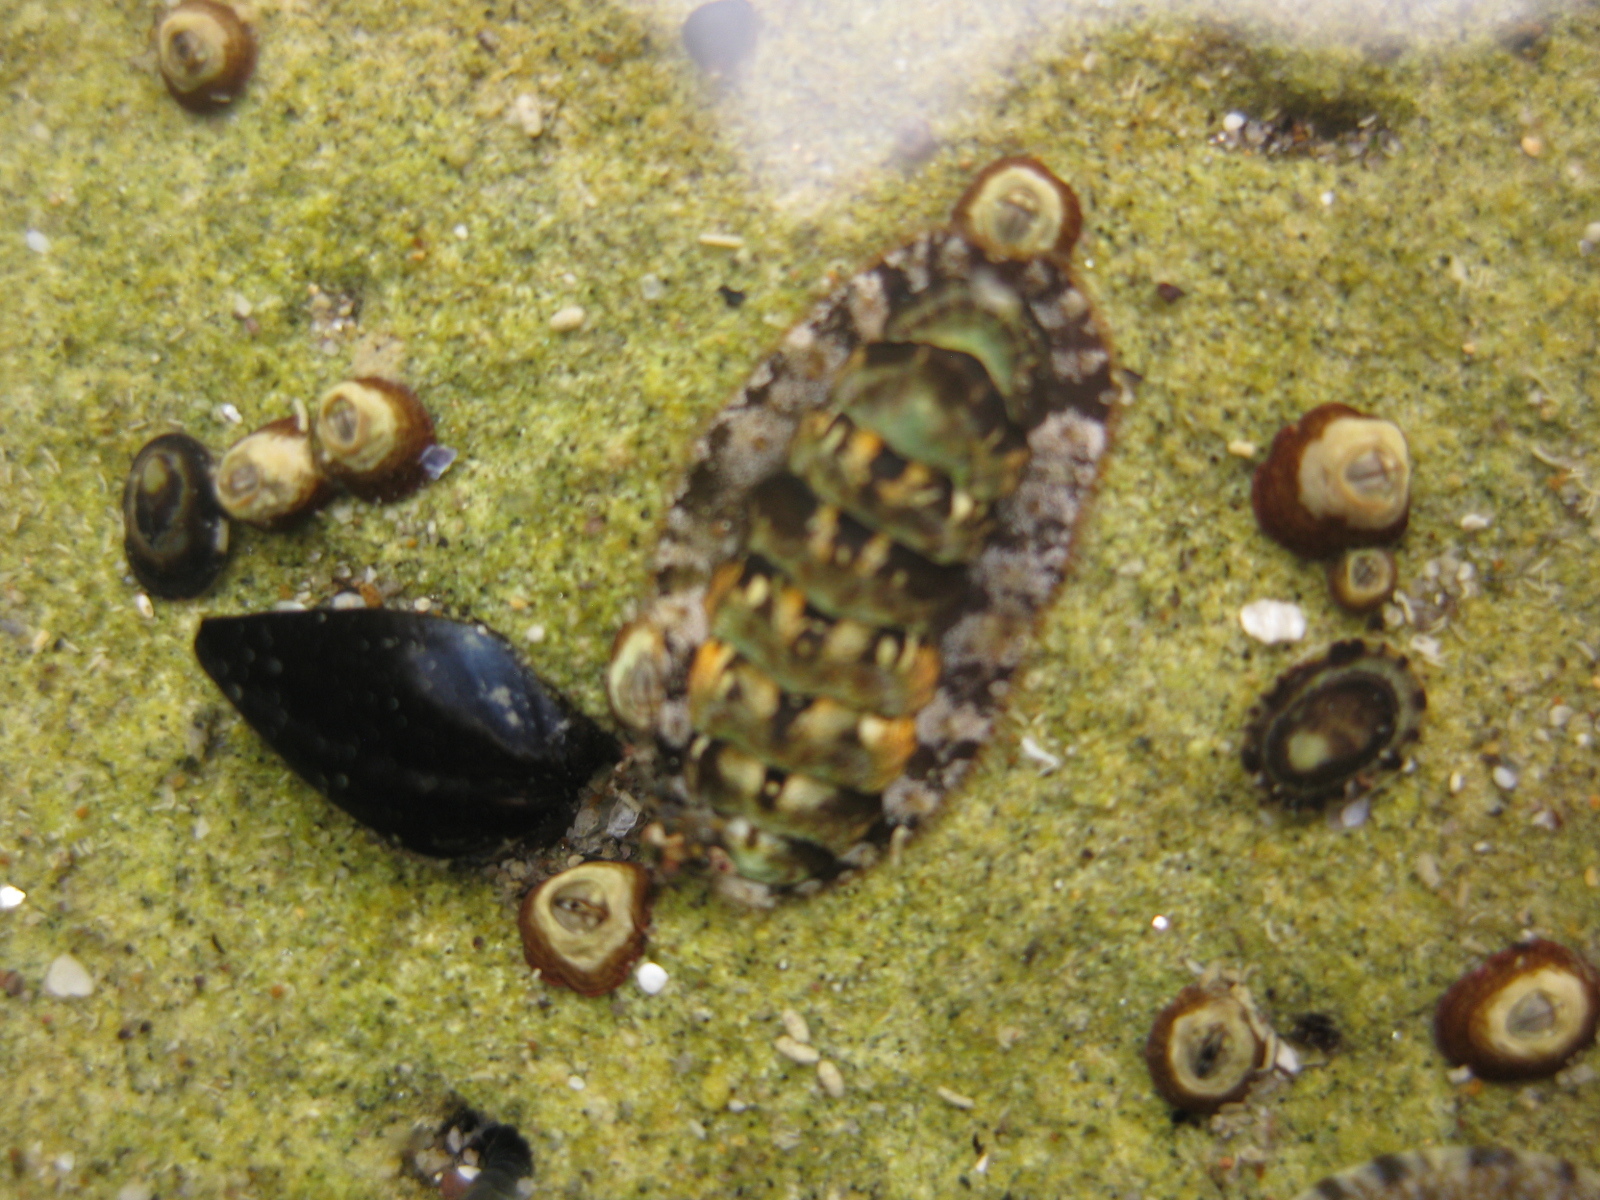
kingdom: Animalia
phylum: Mollusca
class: Polyplacophora
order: Chitonida
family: Mopaliidae
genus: Plaxiphora
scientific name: Plaxiphora caelata
